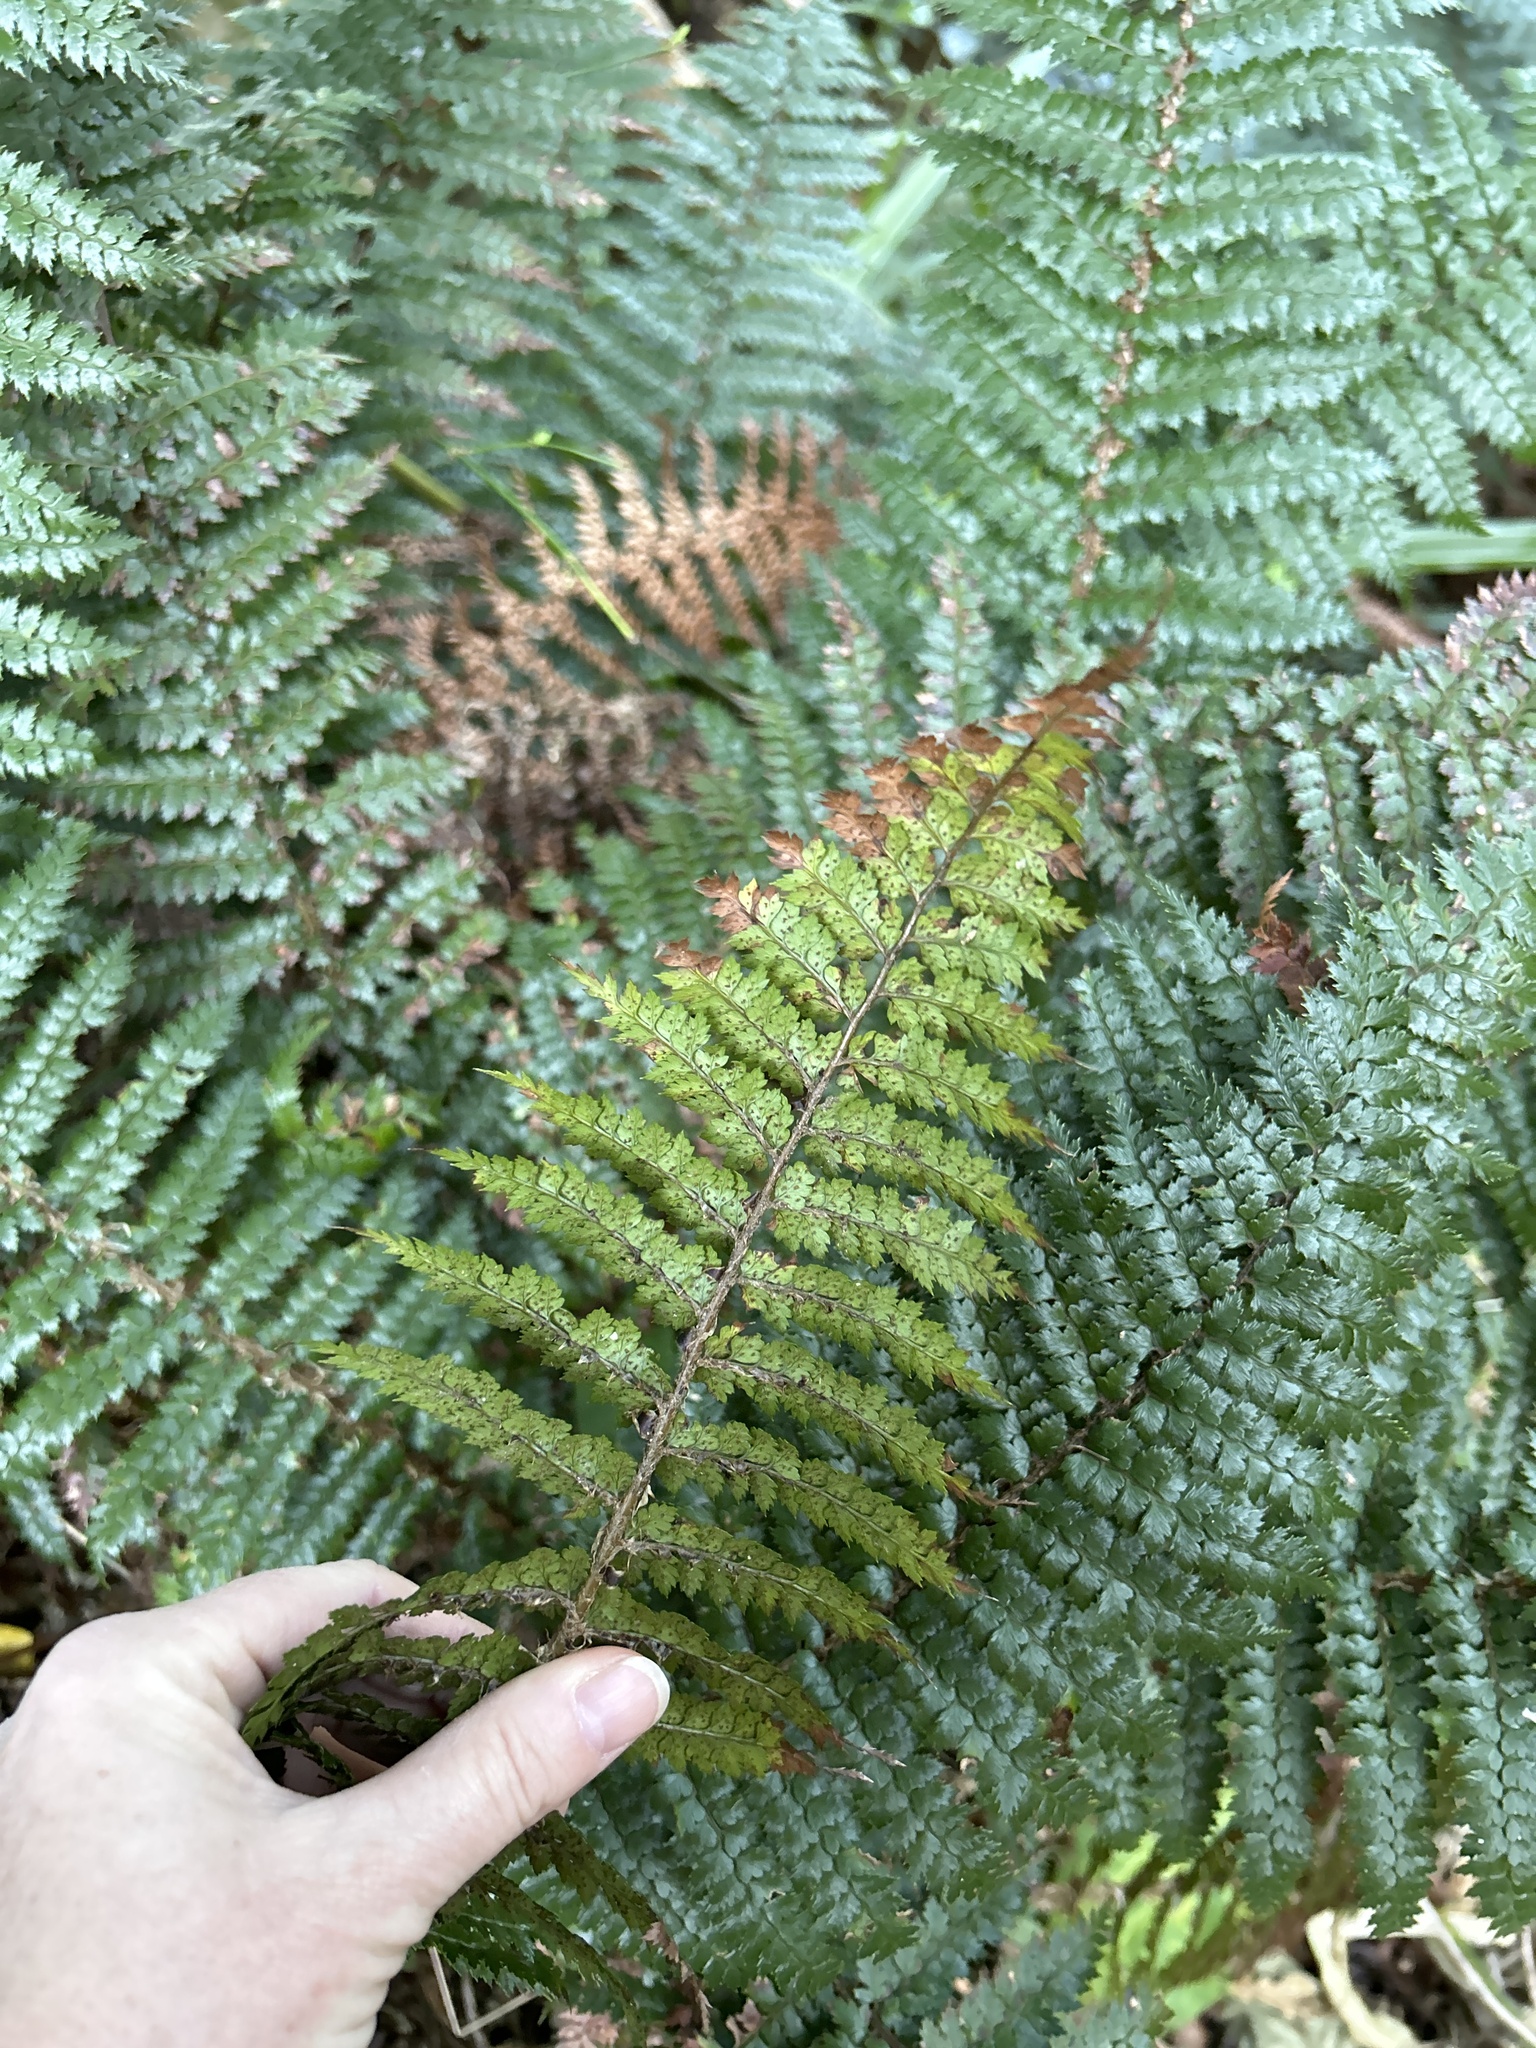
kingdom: Plantae
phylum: Tracheophyta
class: Polypodiopsida
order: Polypodiales
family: Dryopteridaceae
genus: Polystichum
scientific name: Polystichum vestitum
